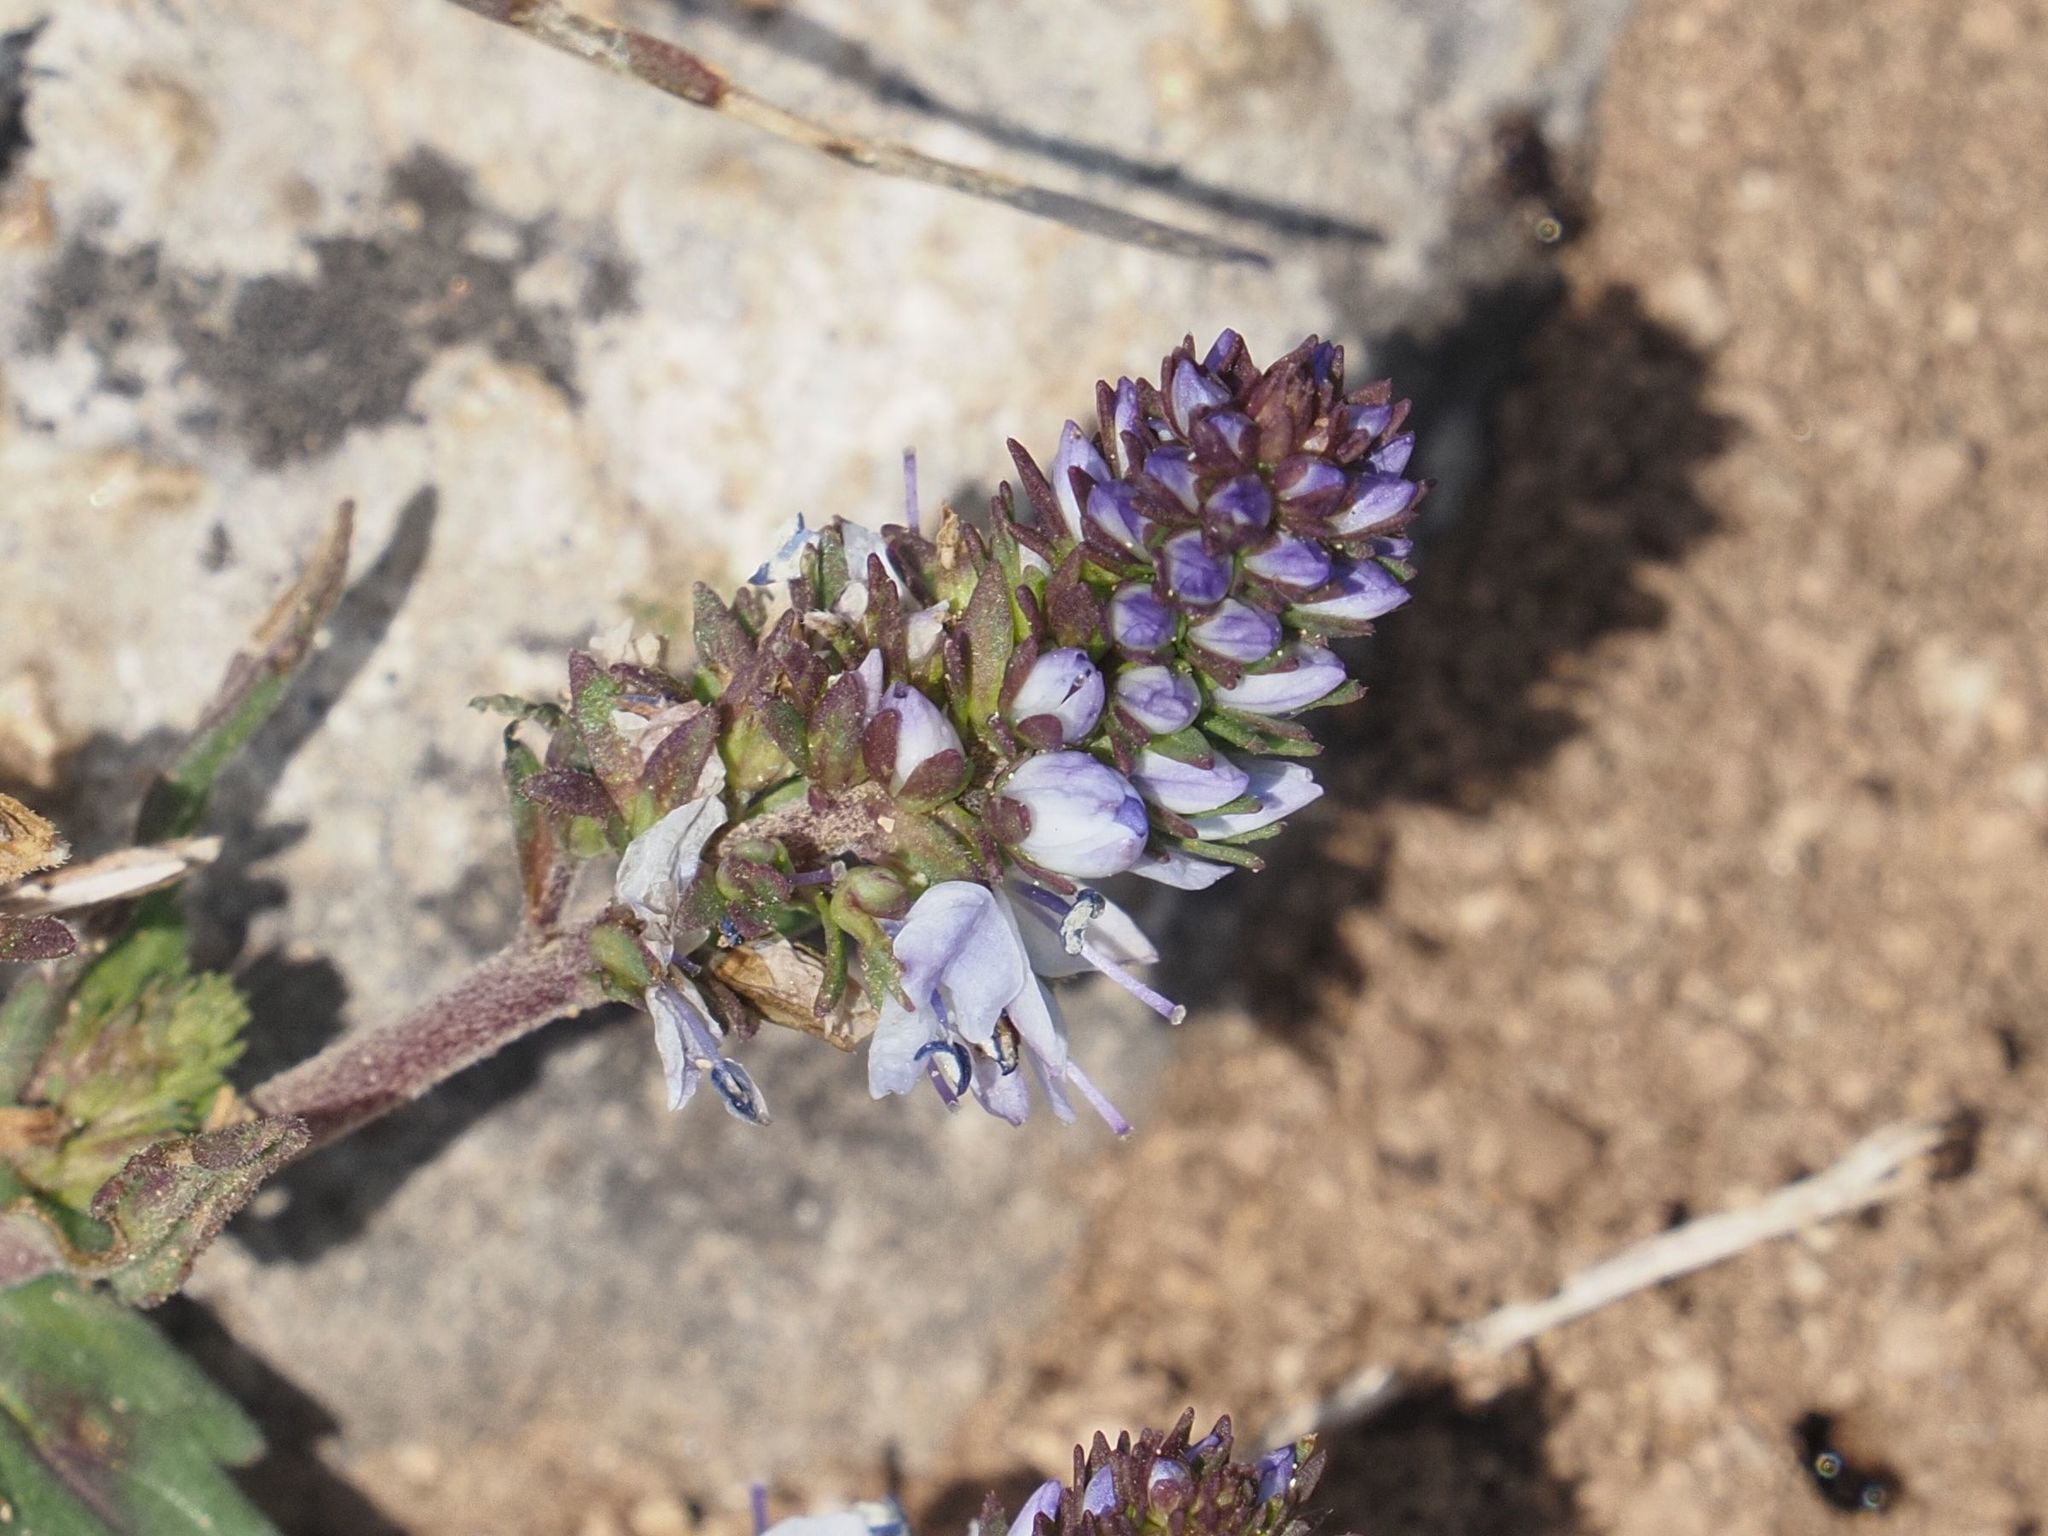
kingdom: Plantae
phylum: Tracheophyta
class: Magnoliopsida
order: Lamiales
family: Plantaginaceae
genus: Veronica
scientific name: Veronica prostrata
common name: Prostrate speedwell
